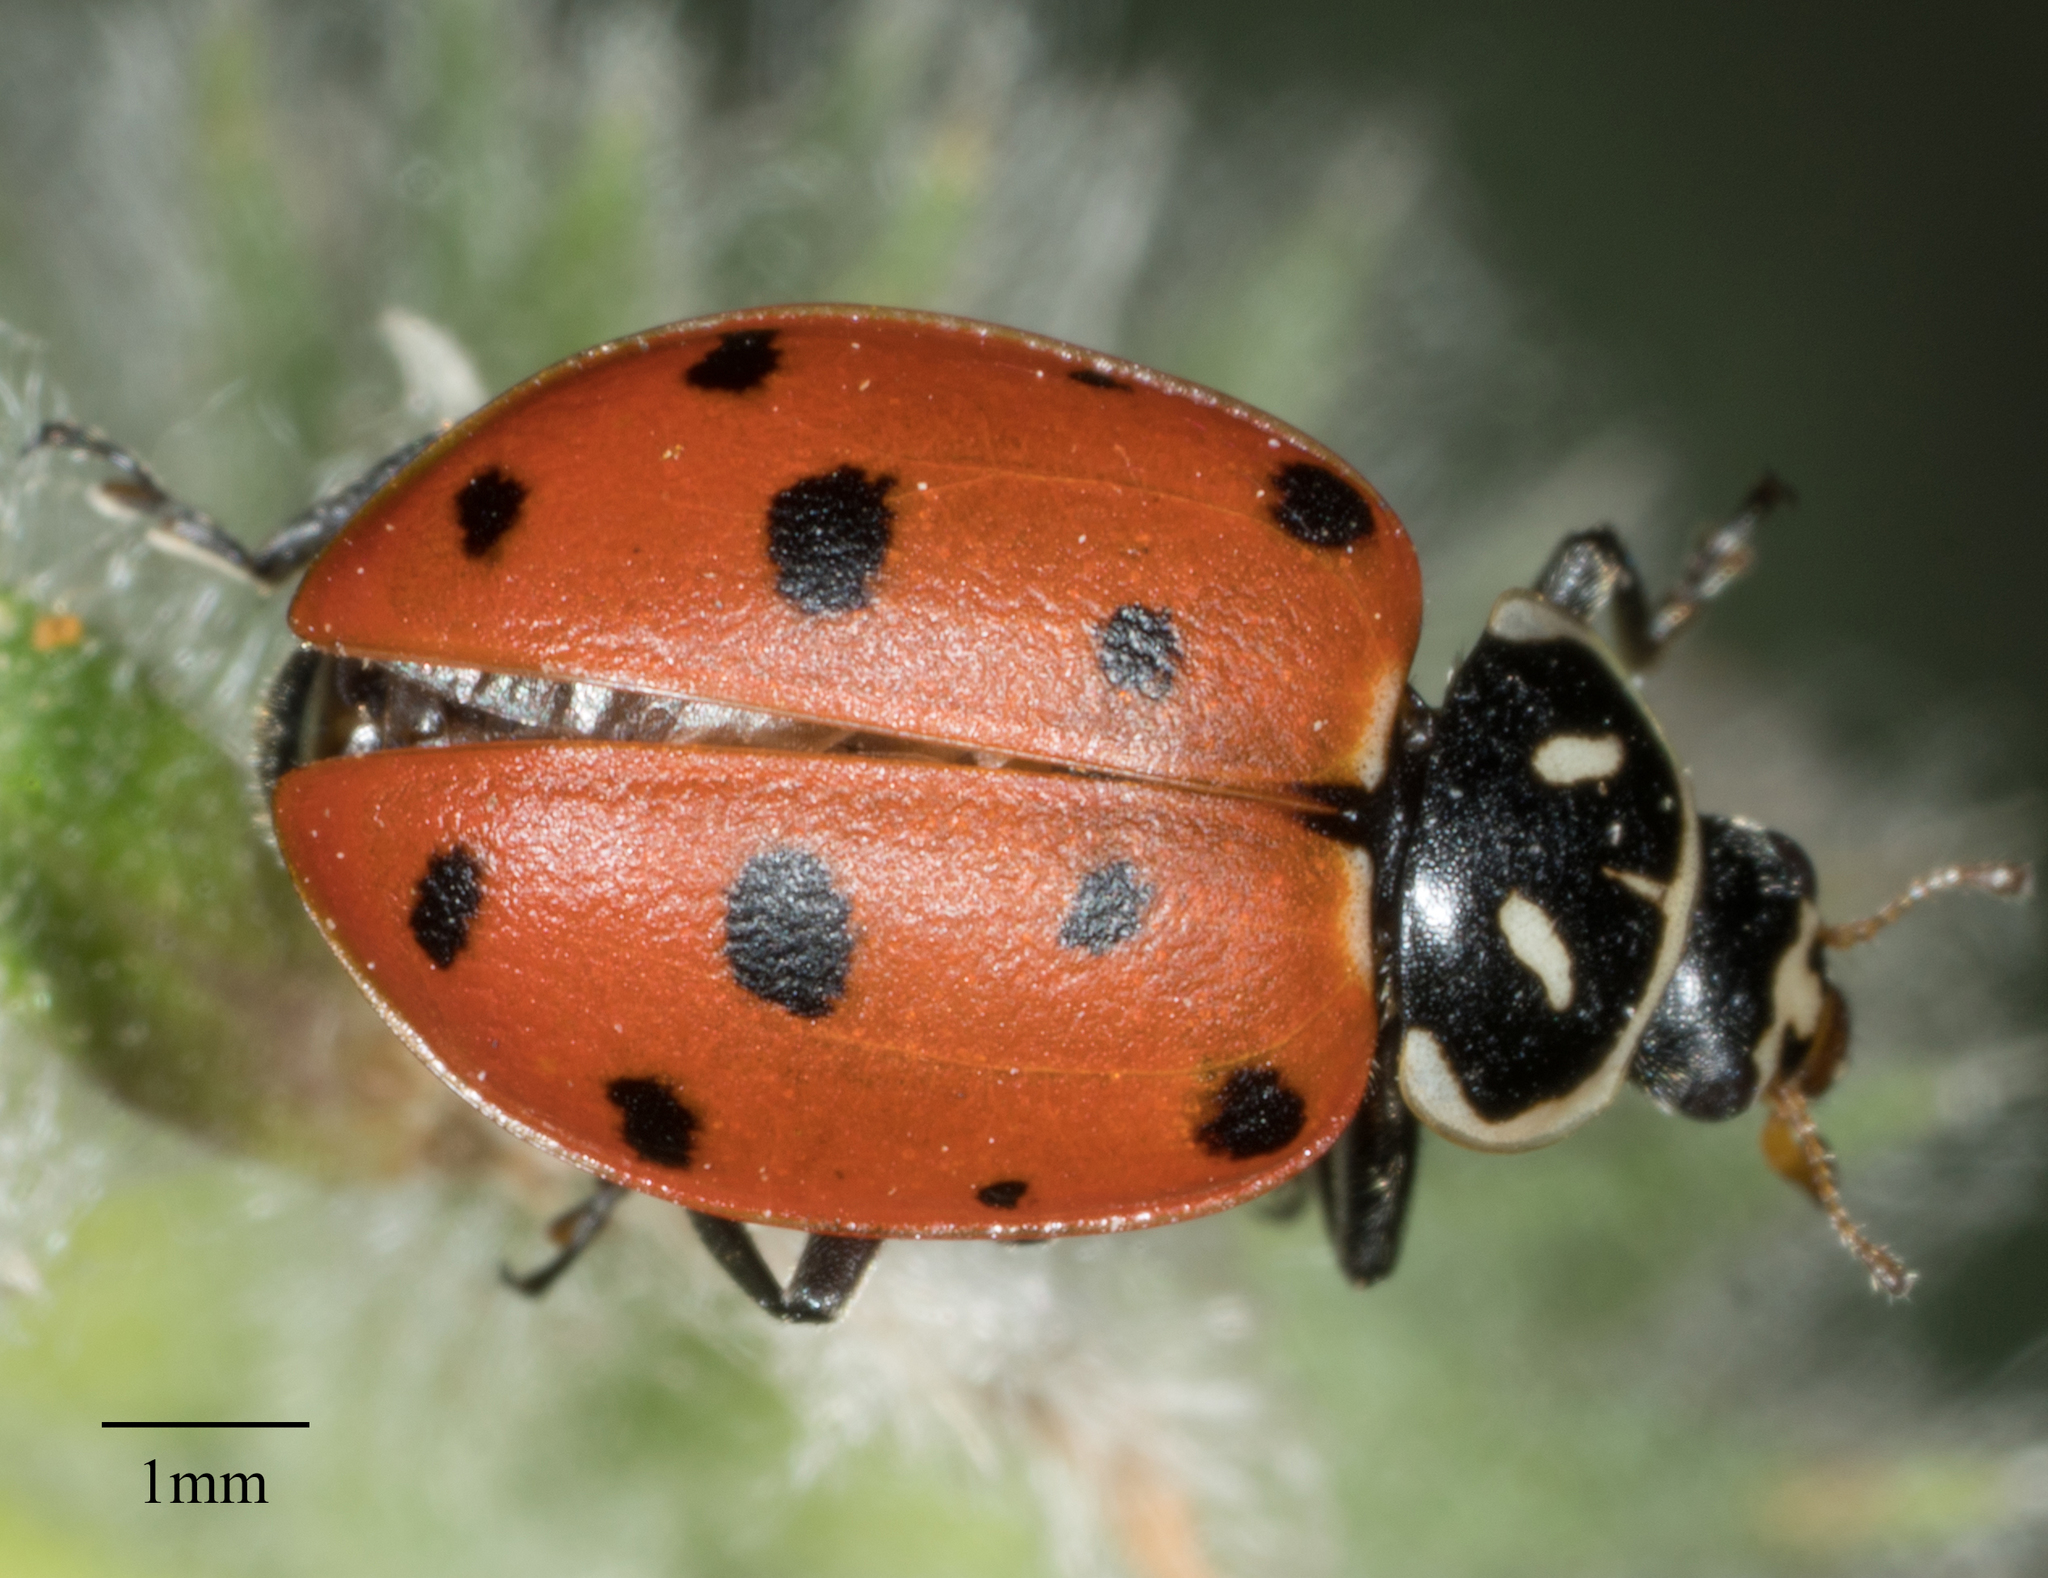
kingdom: Animalia
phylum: Arthropoda
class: Insecta
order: Coleoptera
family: Coccinellidae
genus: Hippodamia
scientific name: Hippodamia convergens
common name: Convergent lady beetle
